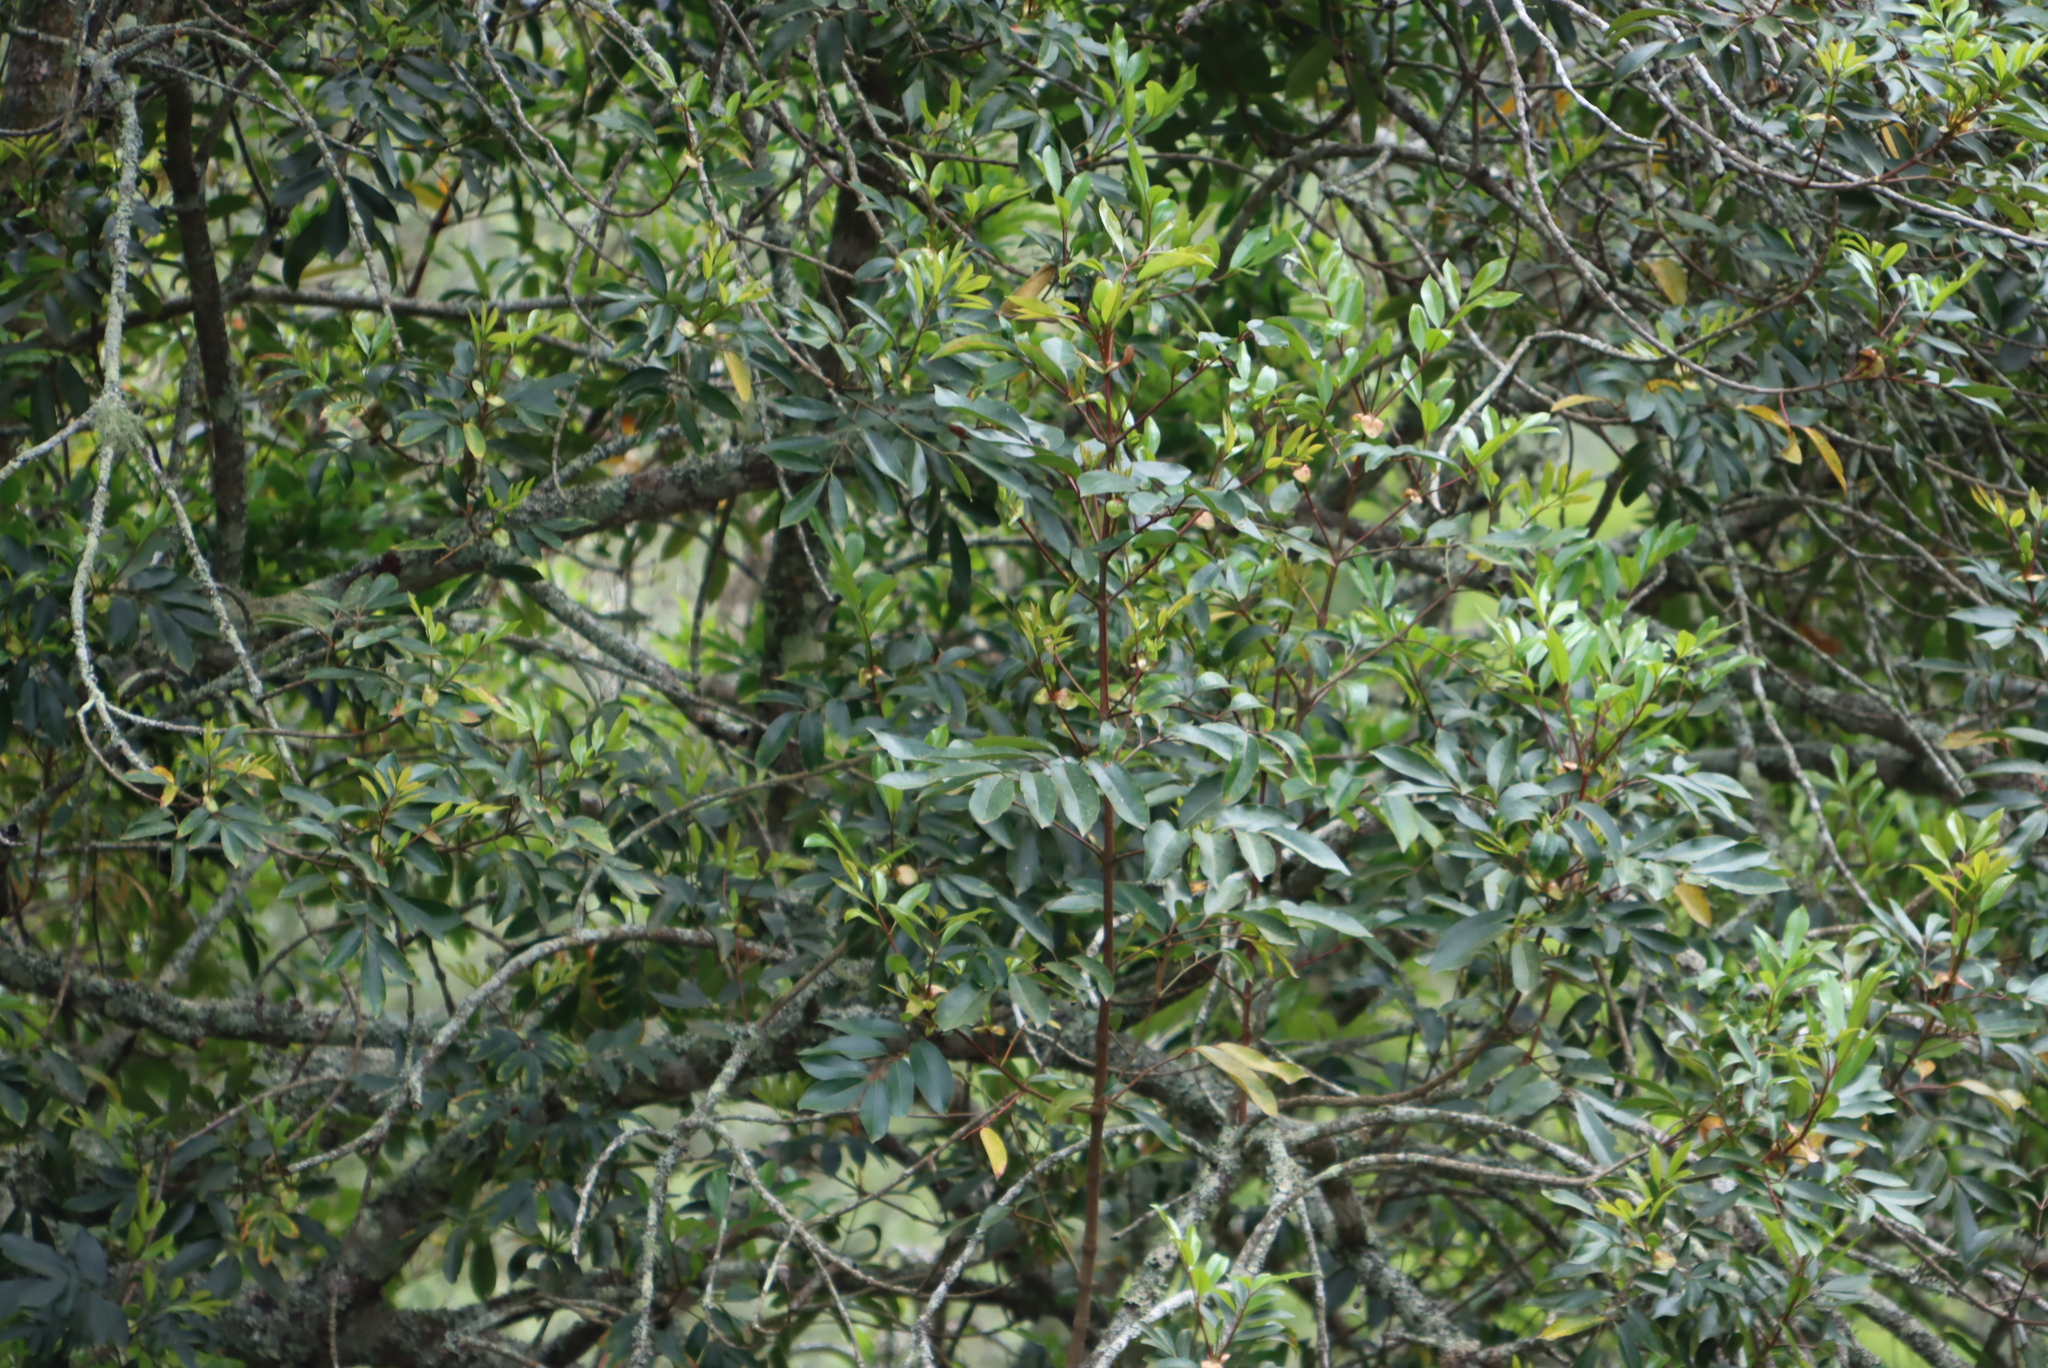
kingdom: Plantae
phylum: Tracheophyta
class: Magnoliopsida
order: Oxalidales
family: Cunoniaceae
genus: Cunonia
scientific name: Cunonia capensis
